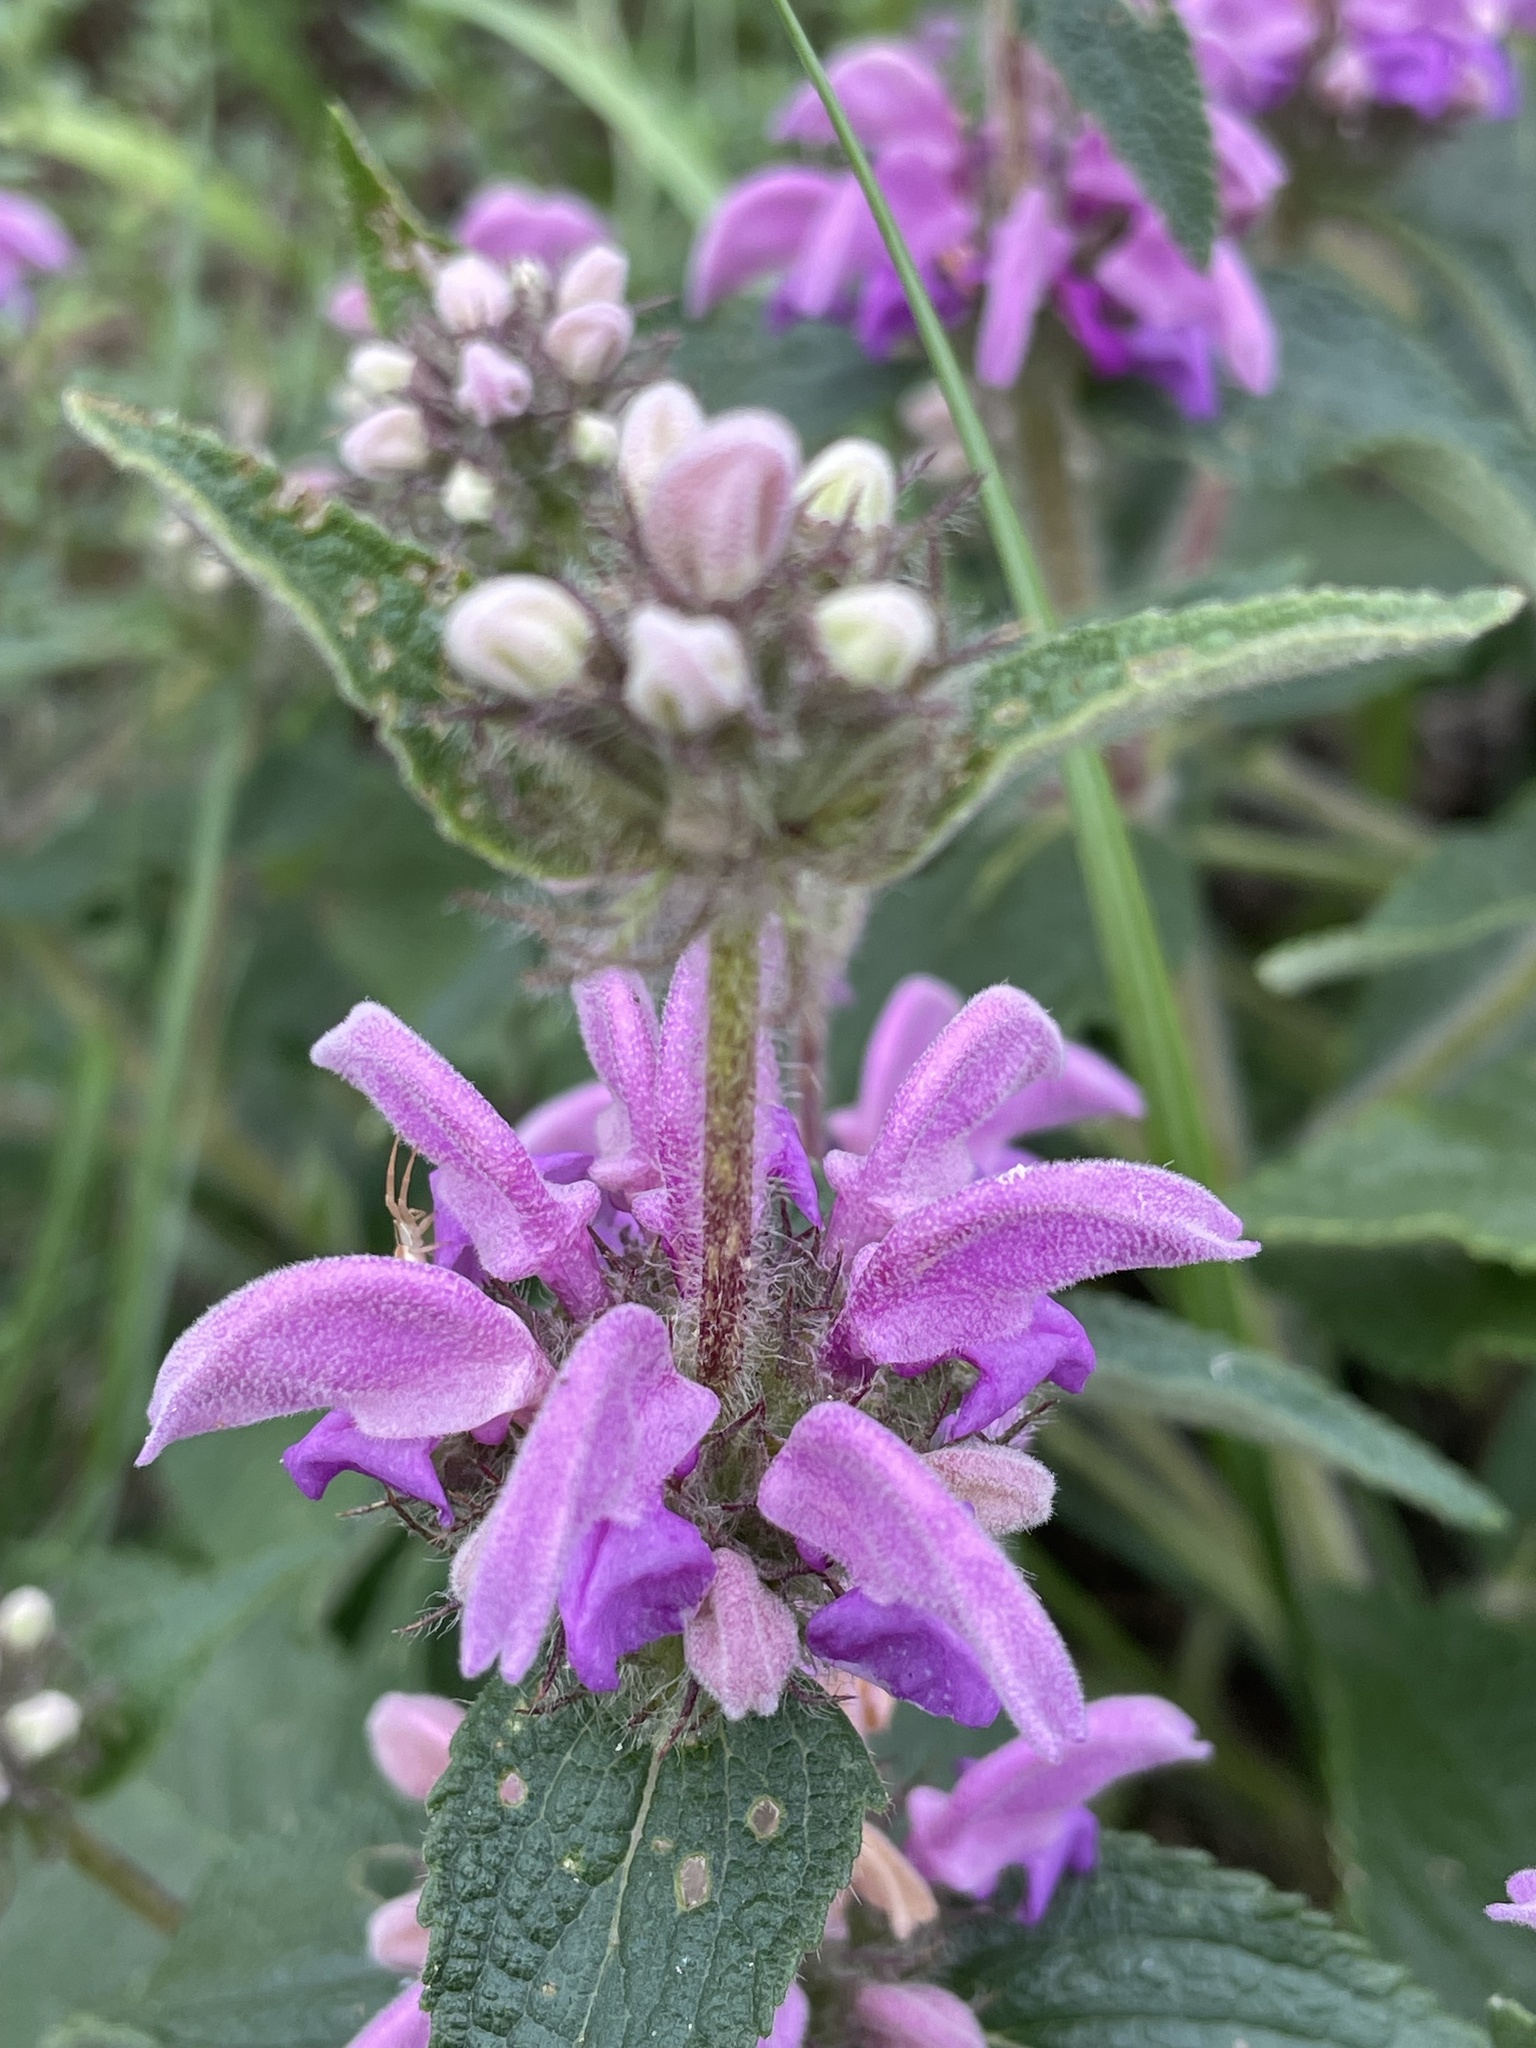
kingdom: Plantae
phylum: Tracheophyta
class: Magnoliopsida
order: Lamiales
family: Lamiaceae
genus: Phlomis
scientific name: Phlomis herba-venti
